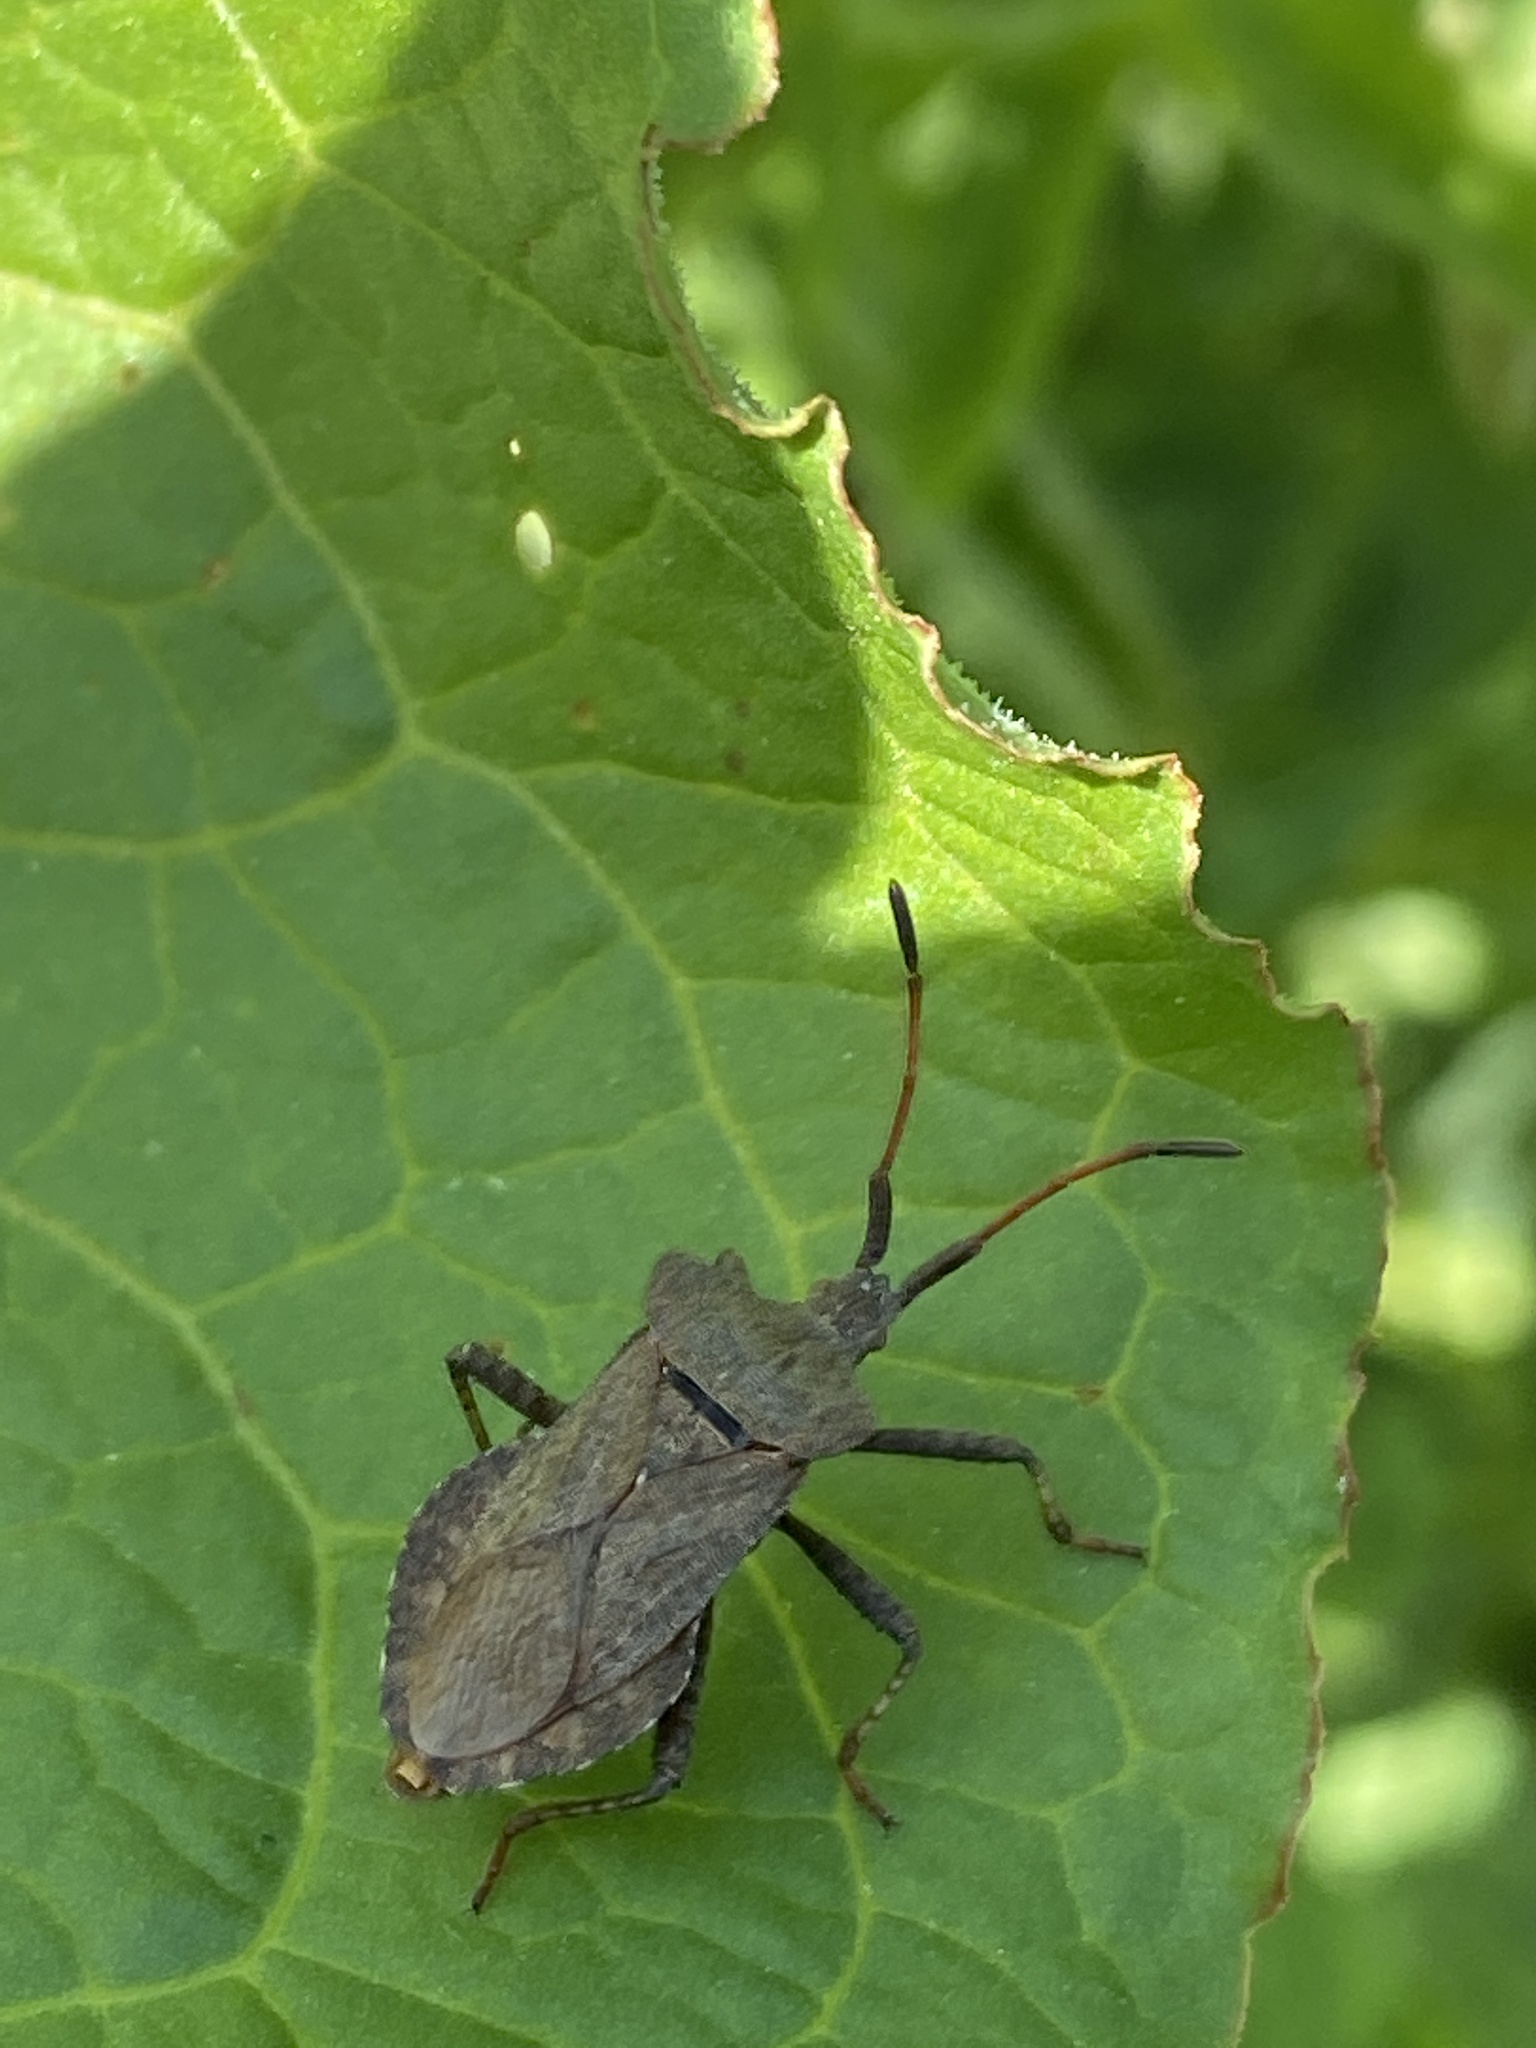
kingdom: Animalia
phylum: Arthropoda
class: Insecta
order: Hemiptera
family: Coreidae
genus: Coreus
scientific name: Coreus marginatus
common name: Dock bug
